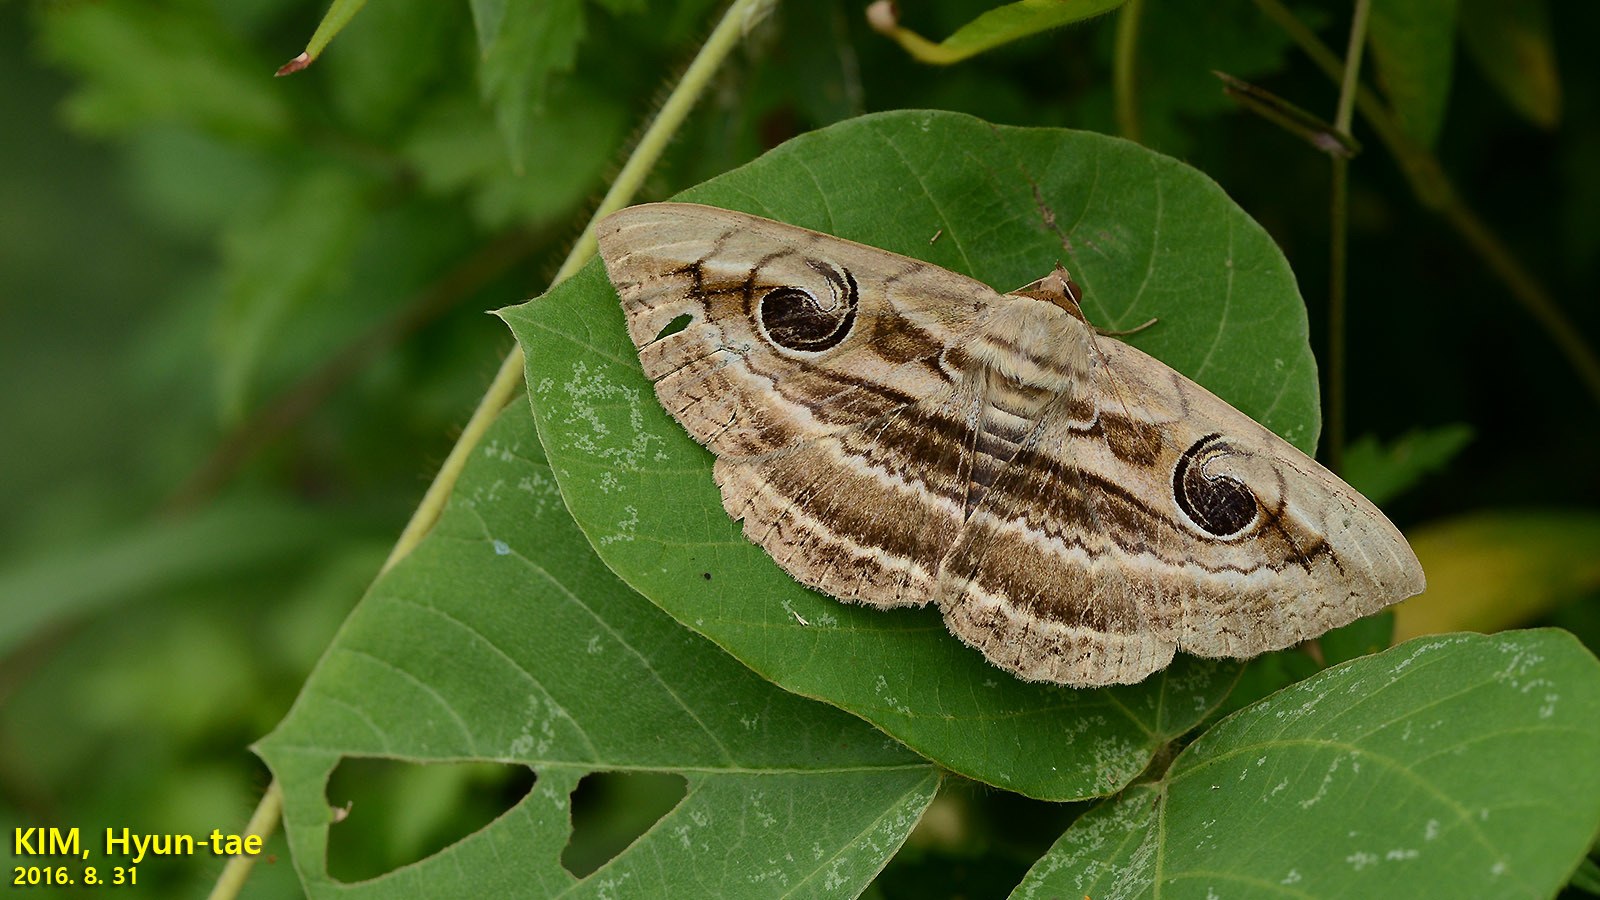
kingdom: Animalia
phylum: Arthropoda
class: Insecta
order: Lepidoptera
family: Erebidae
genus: Spirama
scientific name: Spirama retorta
